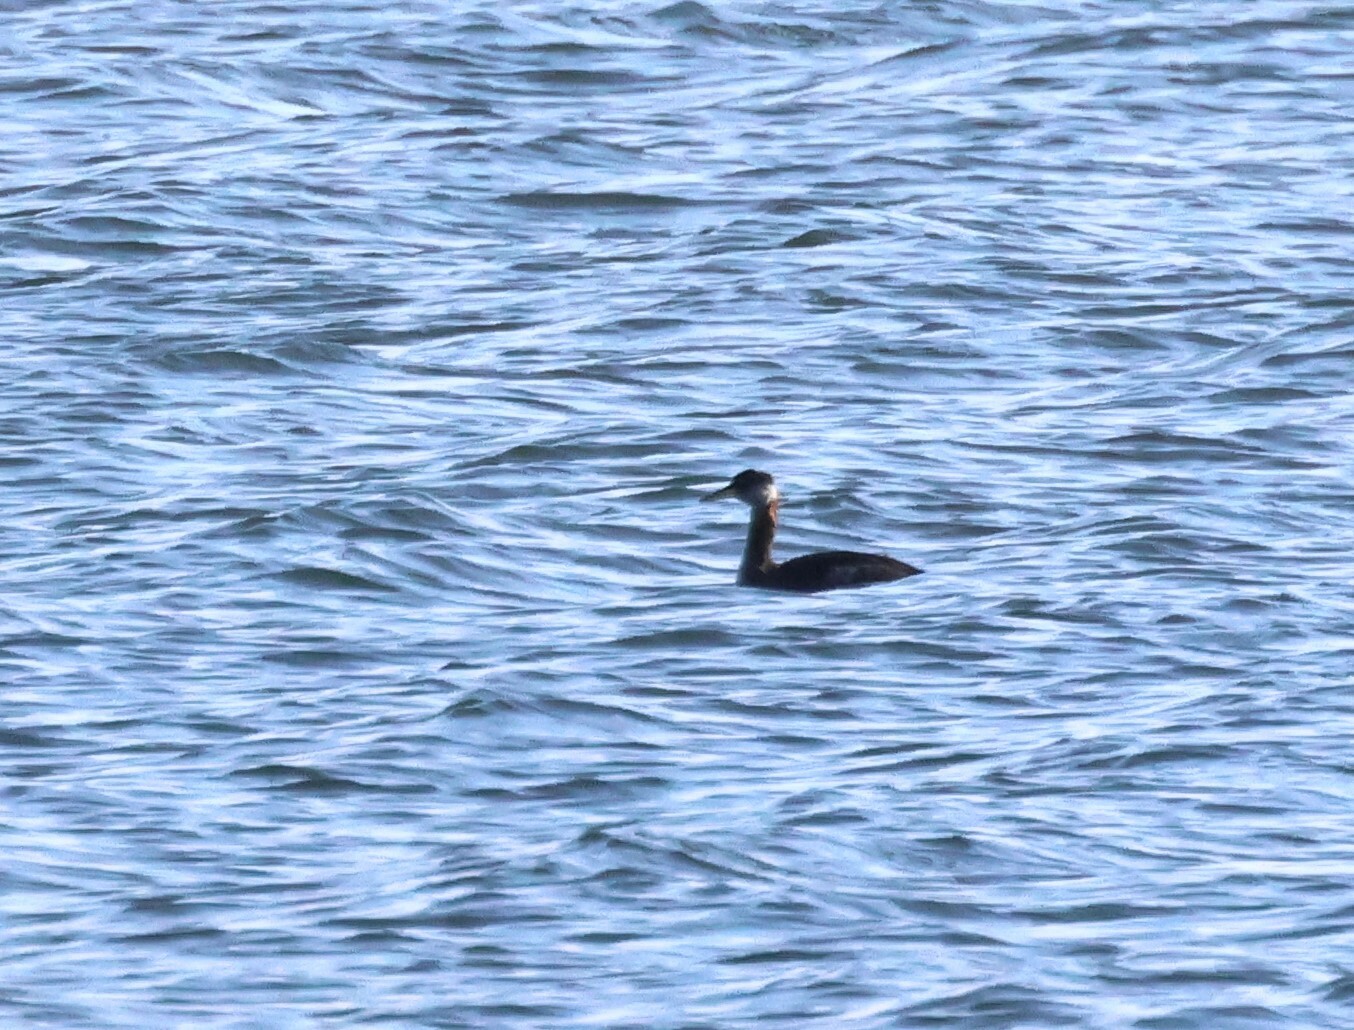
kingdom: Animalia
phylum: Chordata
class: Aves
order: Podicipediformes
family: Podicipedidae
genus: Podiceps
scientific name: Podiceps grisegena
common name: Red-necked grebe
